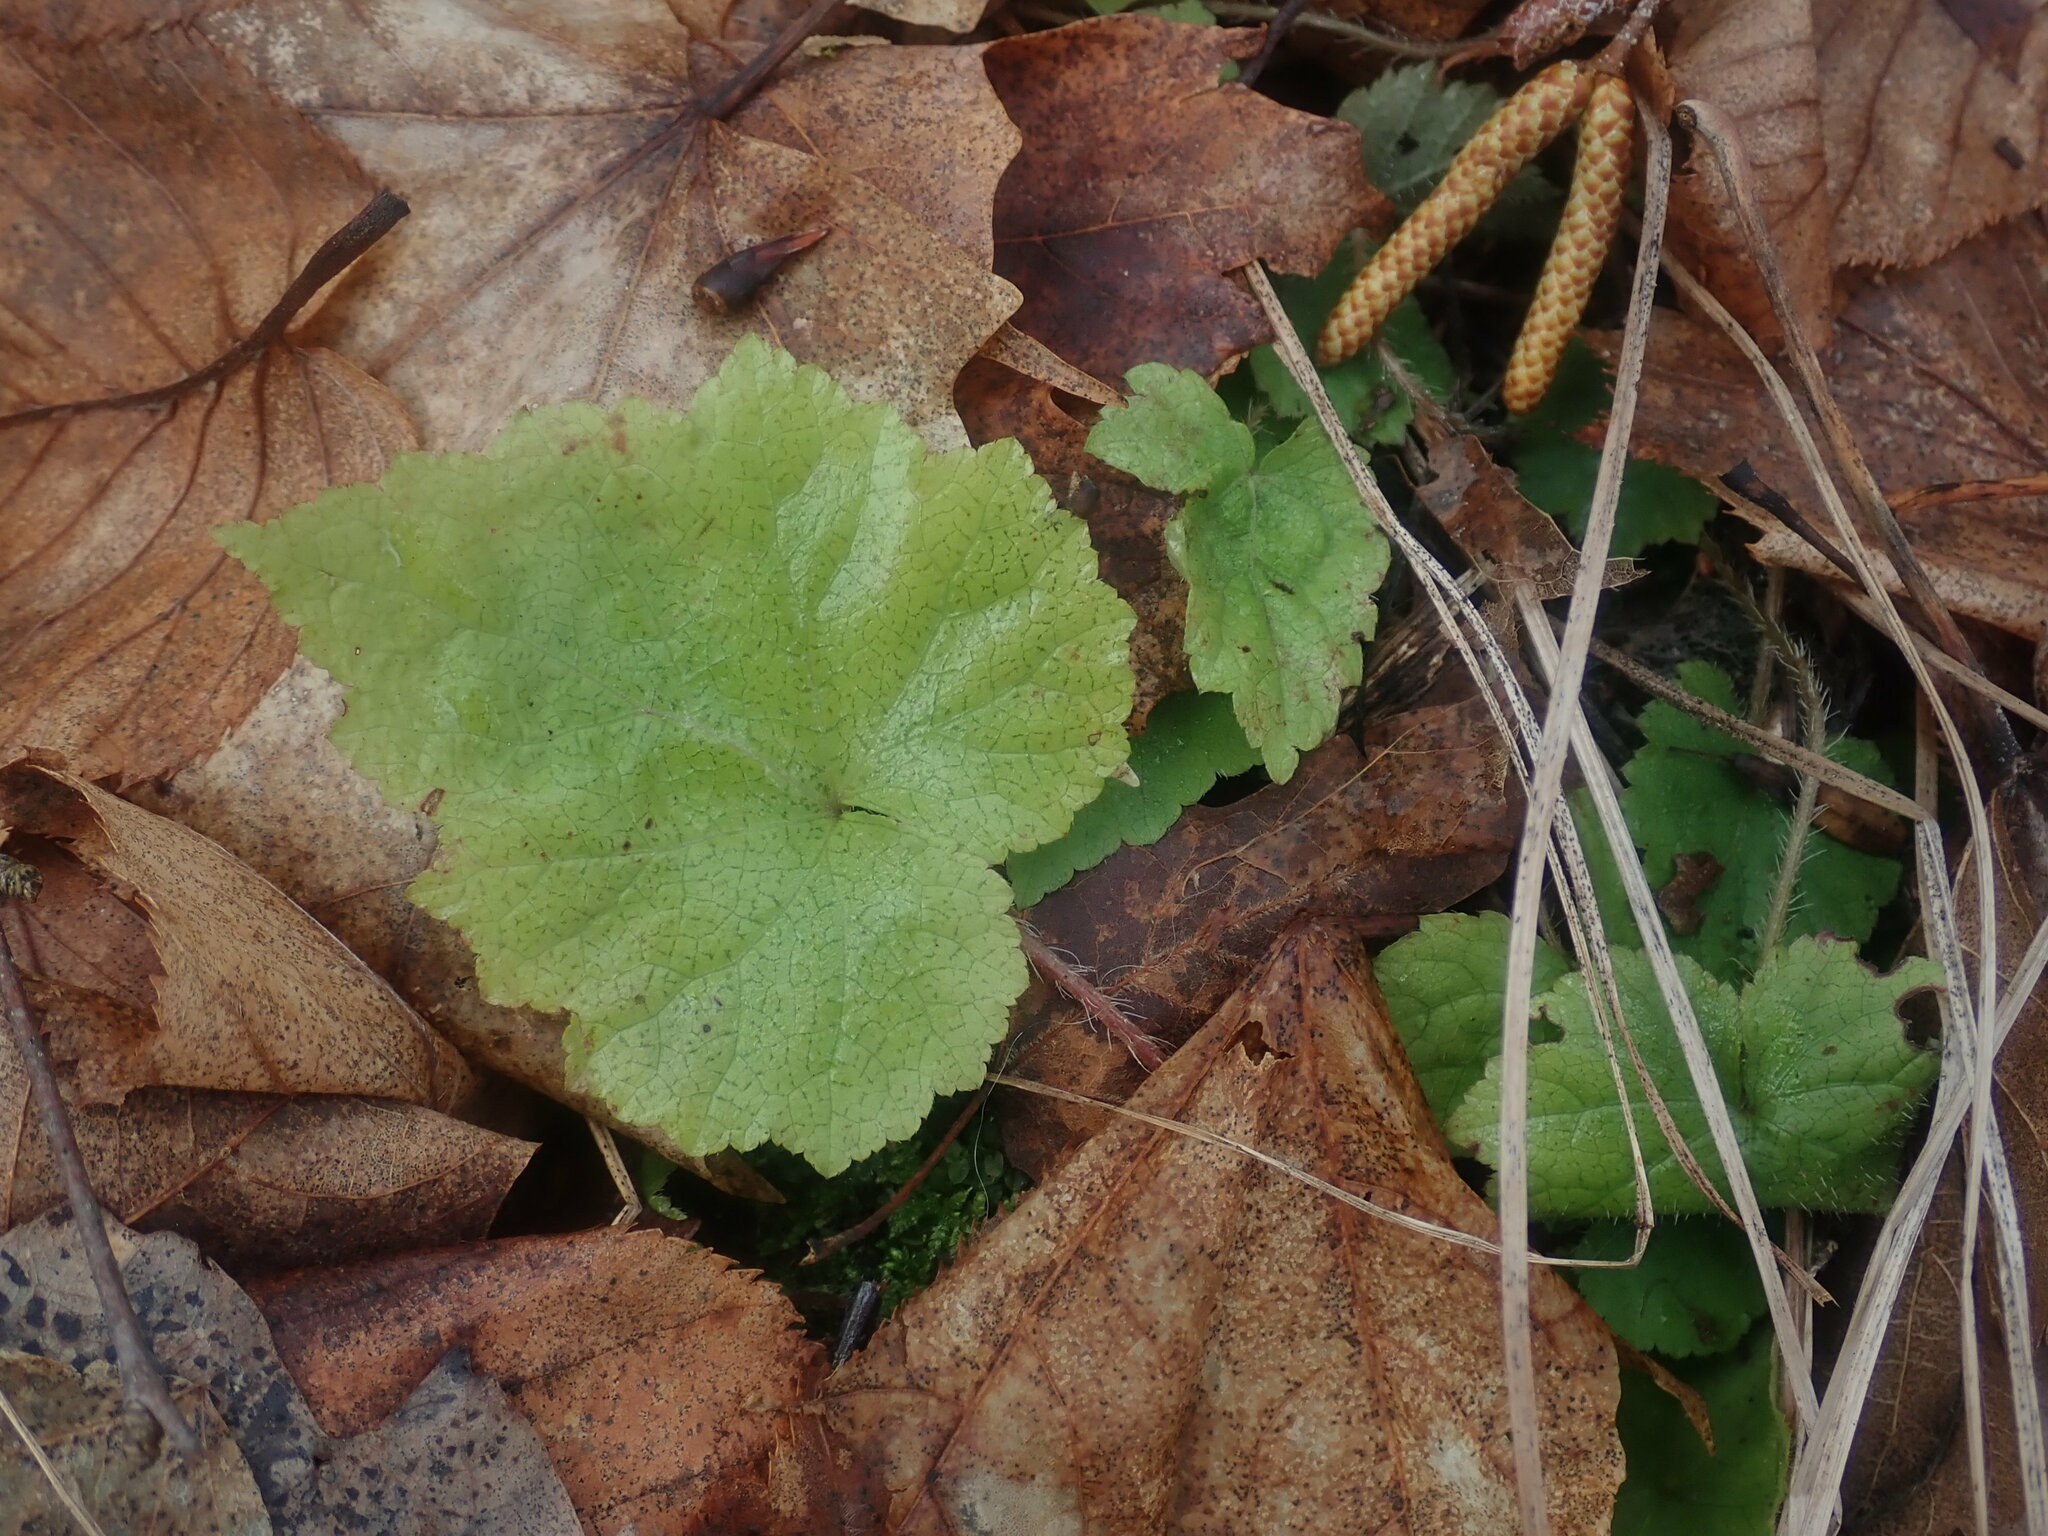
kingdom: Plantae
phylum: Tracheophyta
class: Magnoliopsida
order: Saxifragales
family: Saxifragaceae
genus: Mitella
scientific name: Mitella diphylla
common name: Coolwort
